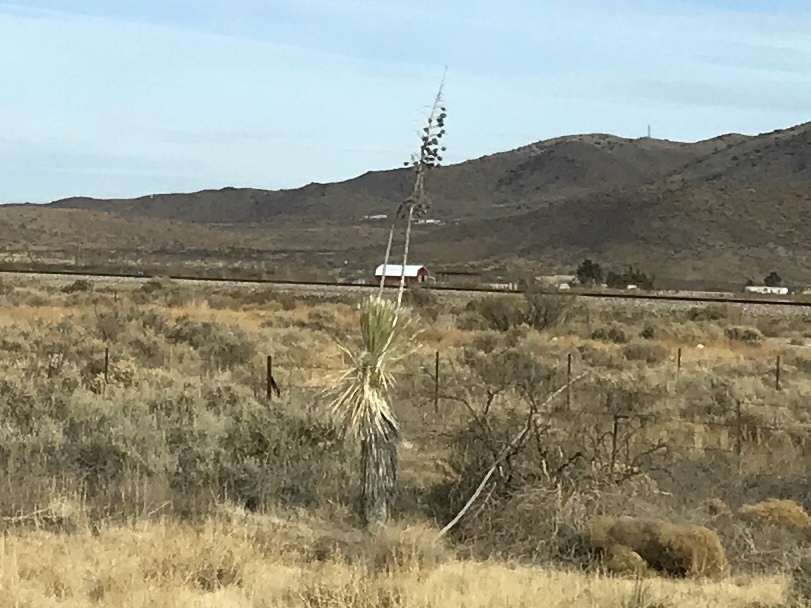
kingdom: Plantae
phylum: Tracheophyta
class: Liliopsida
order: Asparagales
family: Asparagaceae
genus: Yucca
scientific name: Yucca elata
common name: Palmella
